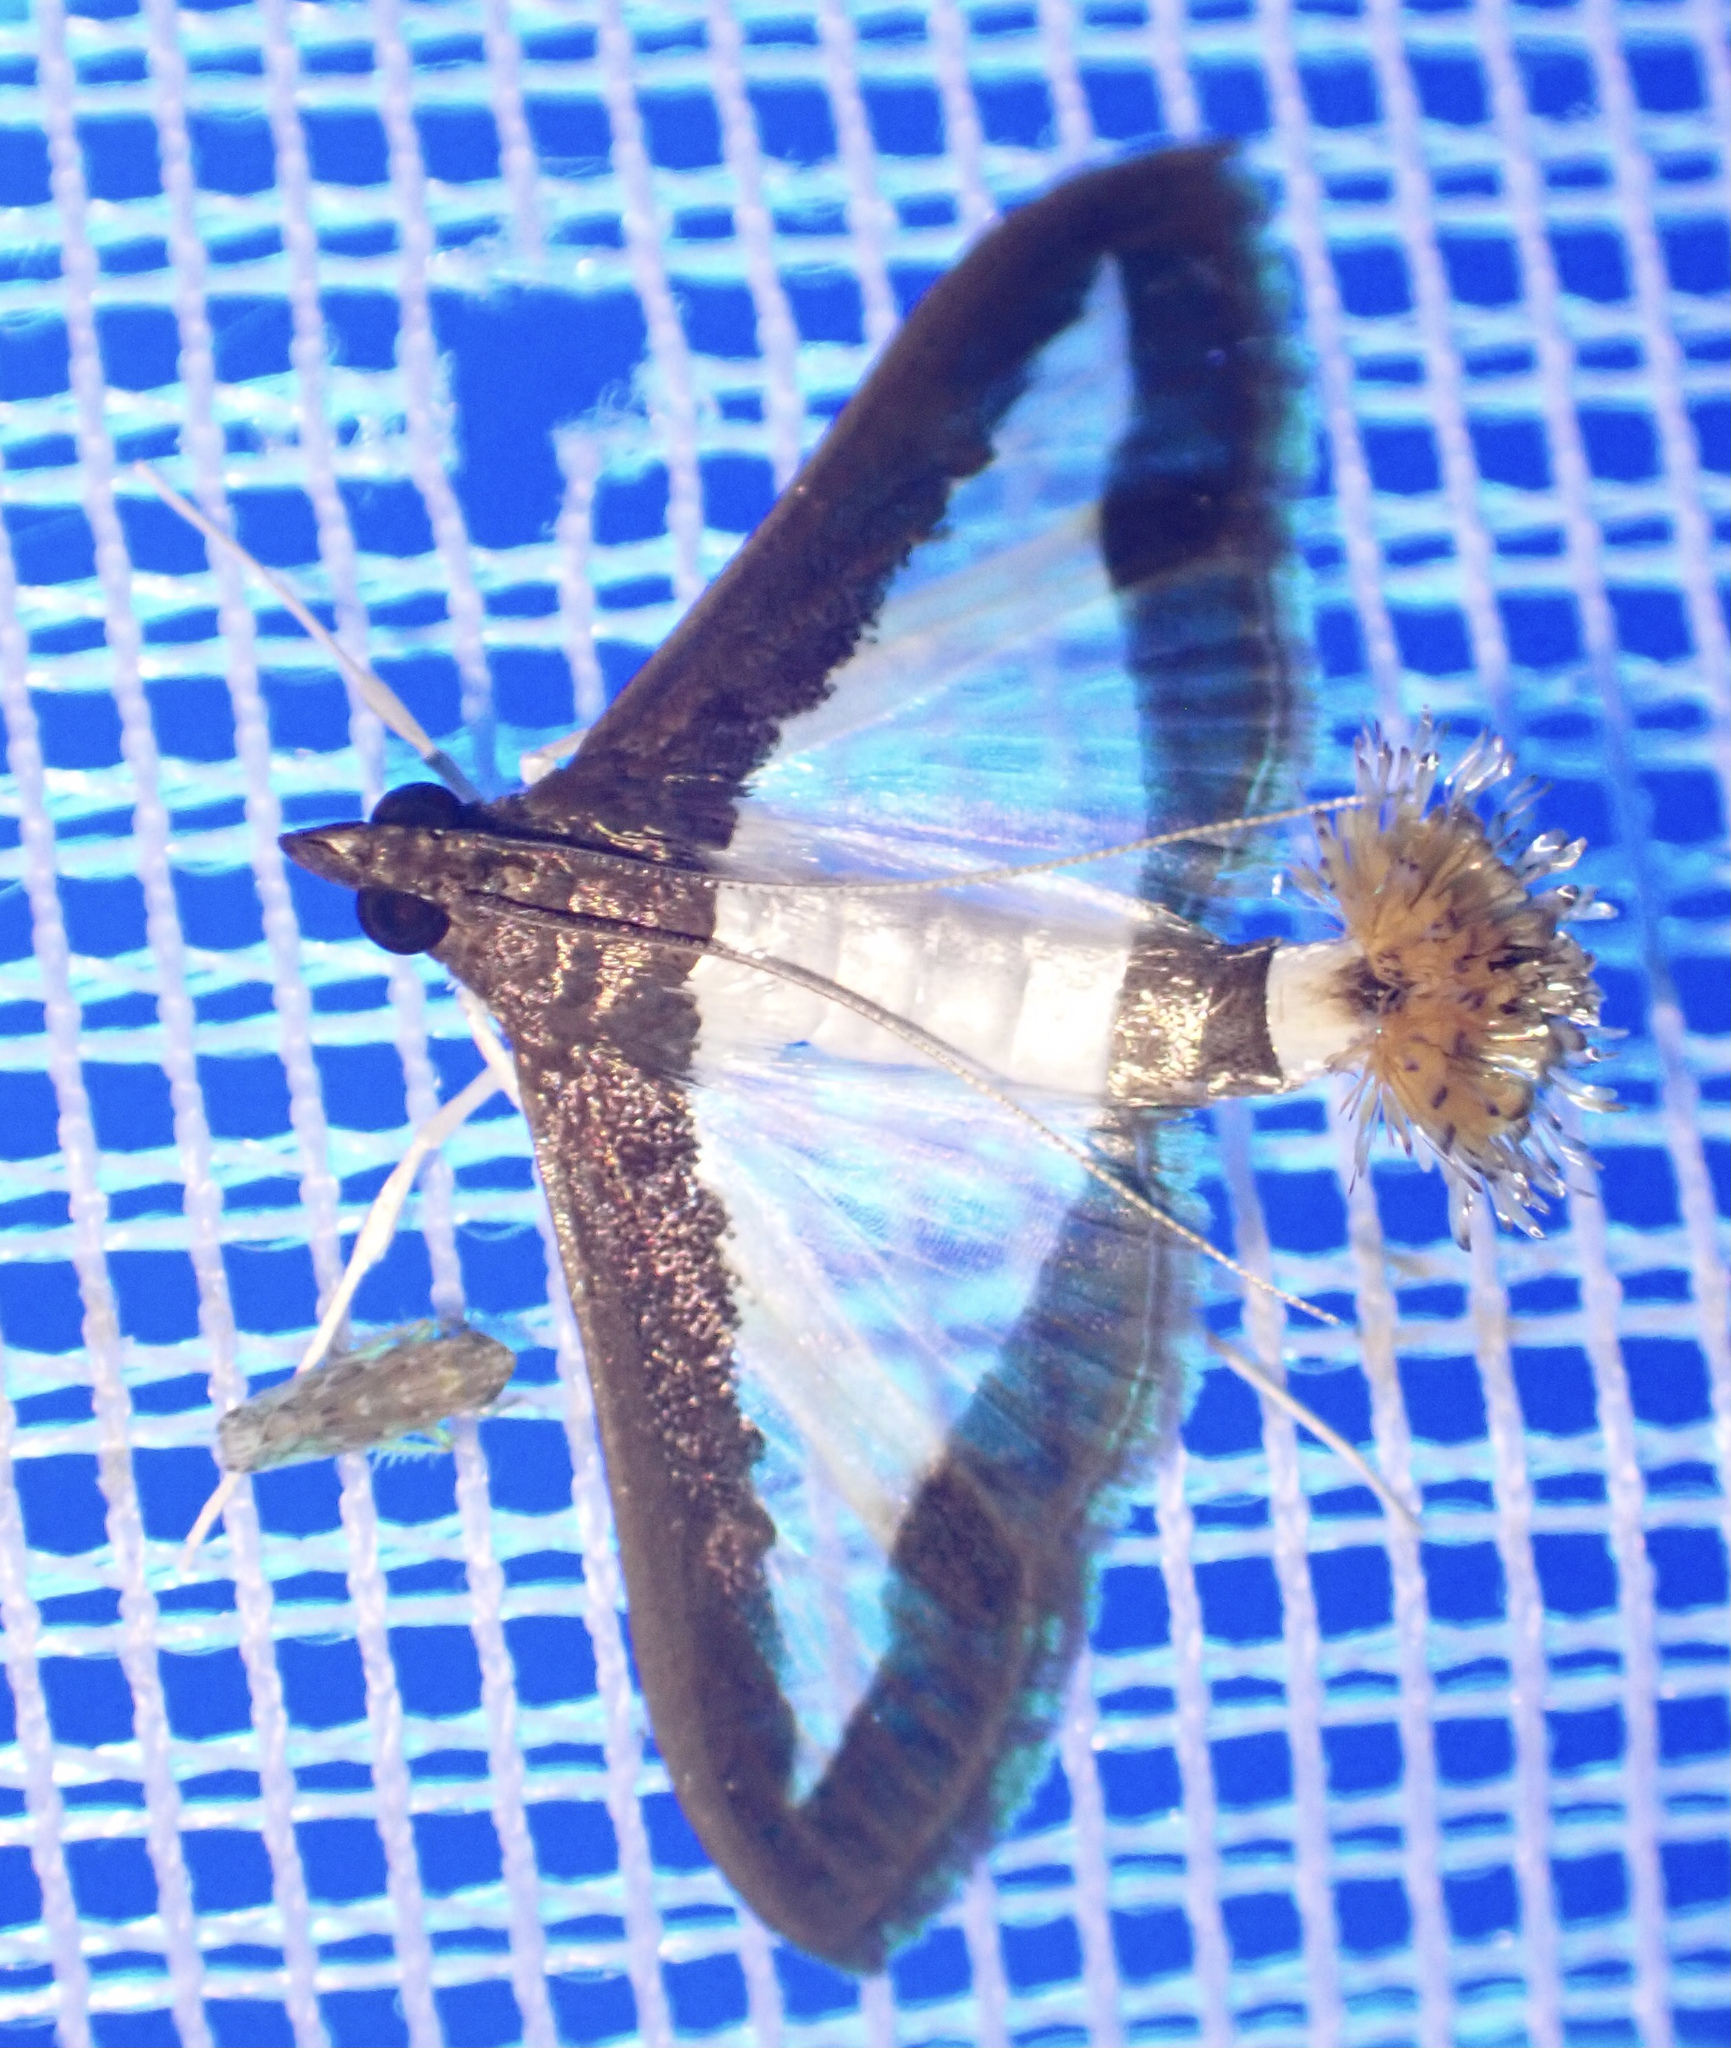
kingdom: Animalia
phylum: Arthropoda
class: Insecta
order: Lepidoptera
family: Crambidae
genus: Diaphania
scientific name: Diaphania indica
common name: Cucumber moth
